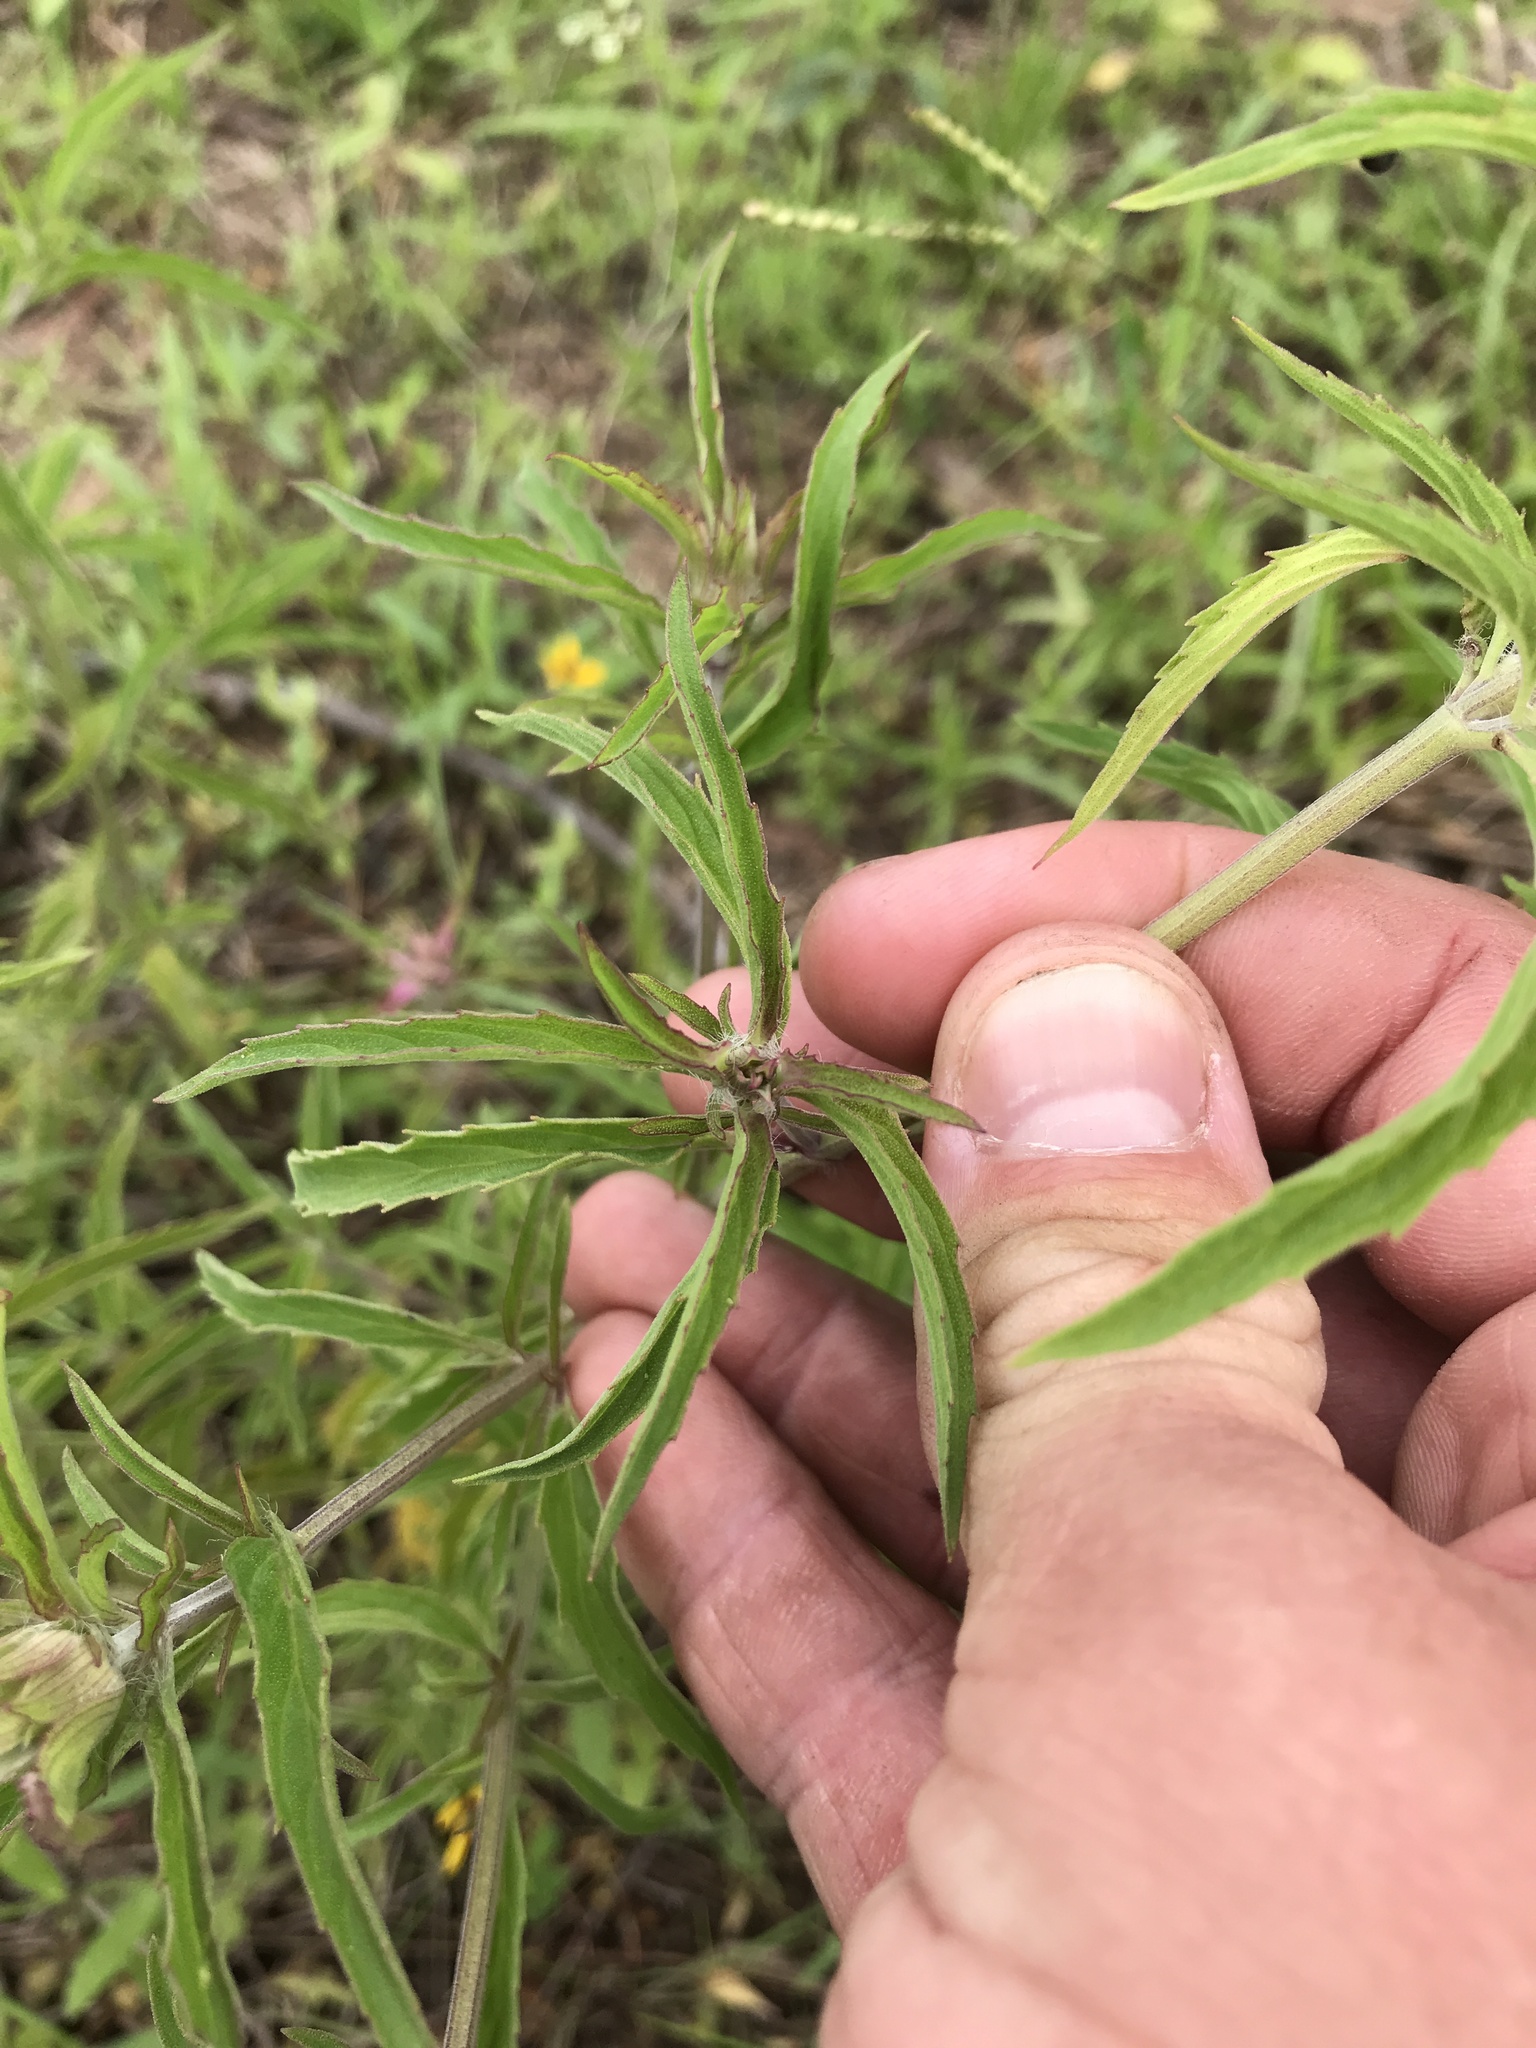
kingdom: Plantae
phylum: Tracheophyta
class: Magnoliopsida
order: Lamiales
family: Lamiaceae
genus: Monarda
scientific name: Monarda punctata
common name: Dotted monarda
